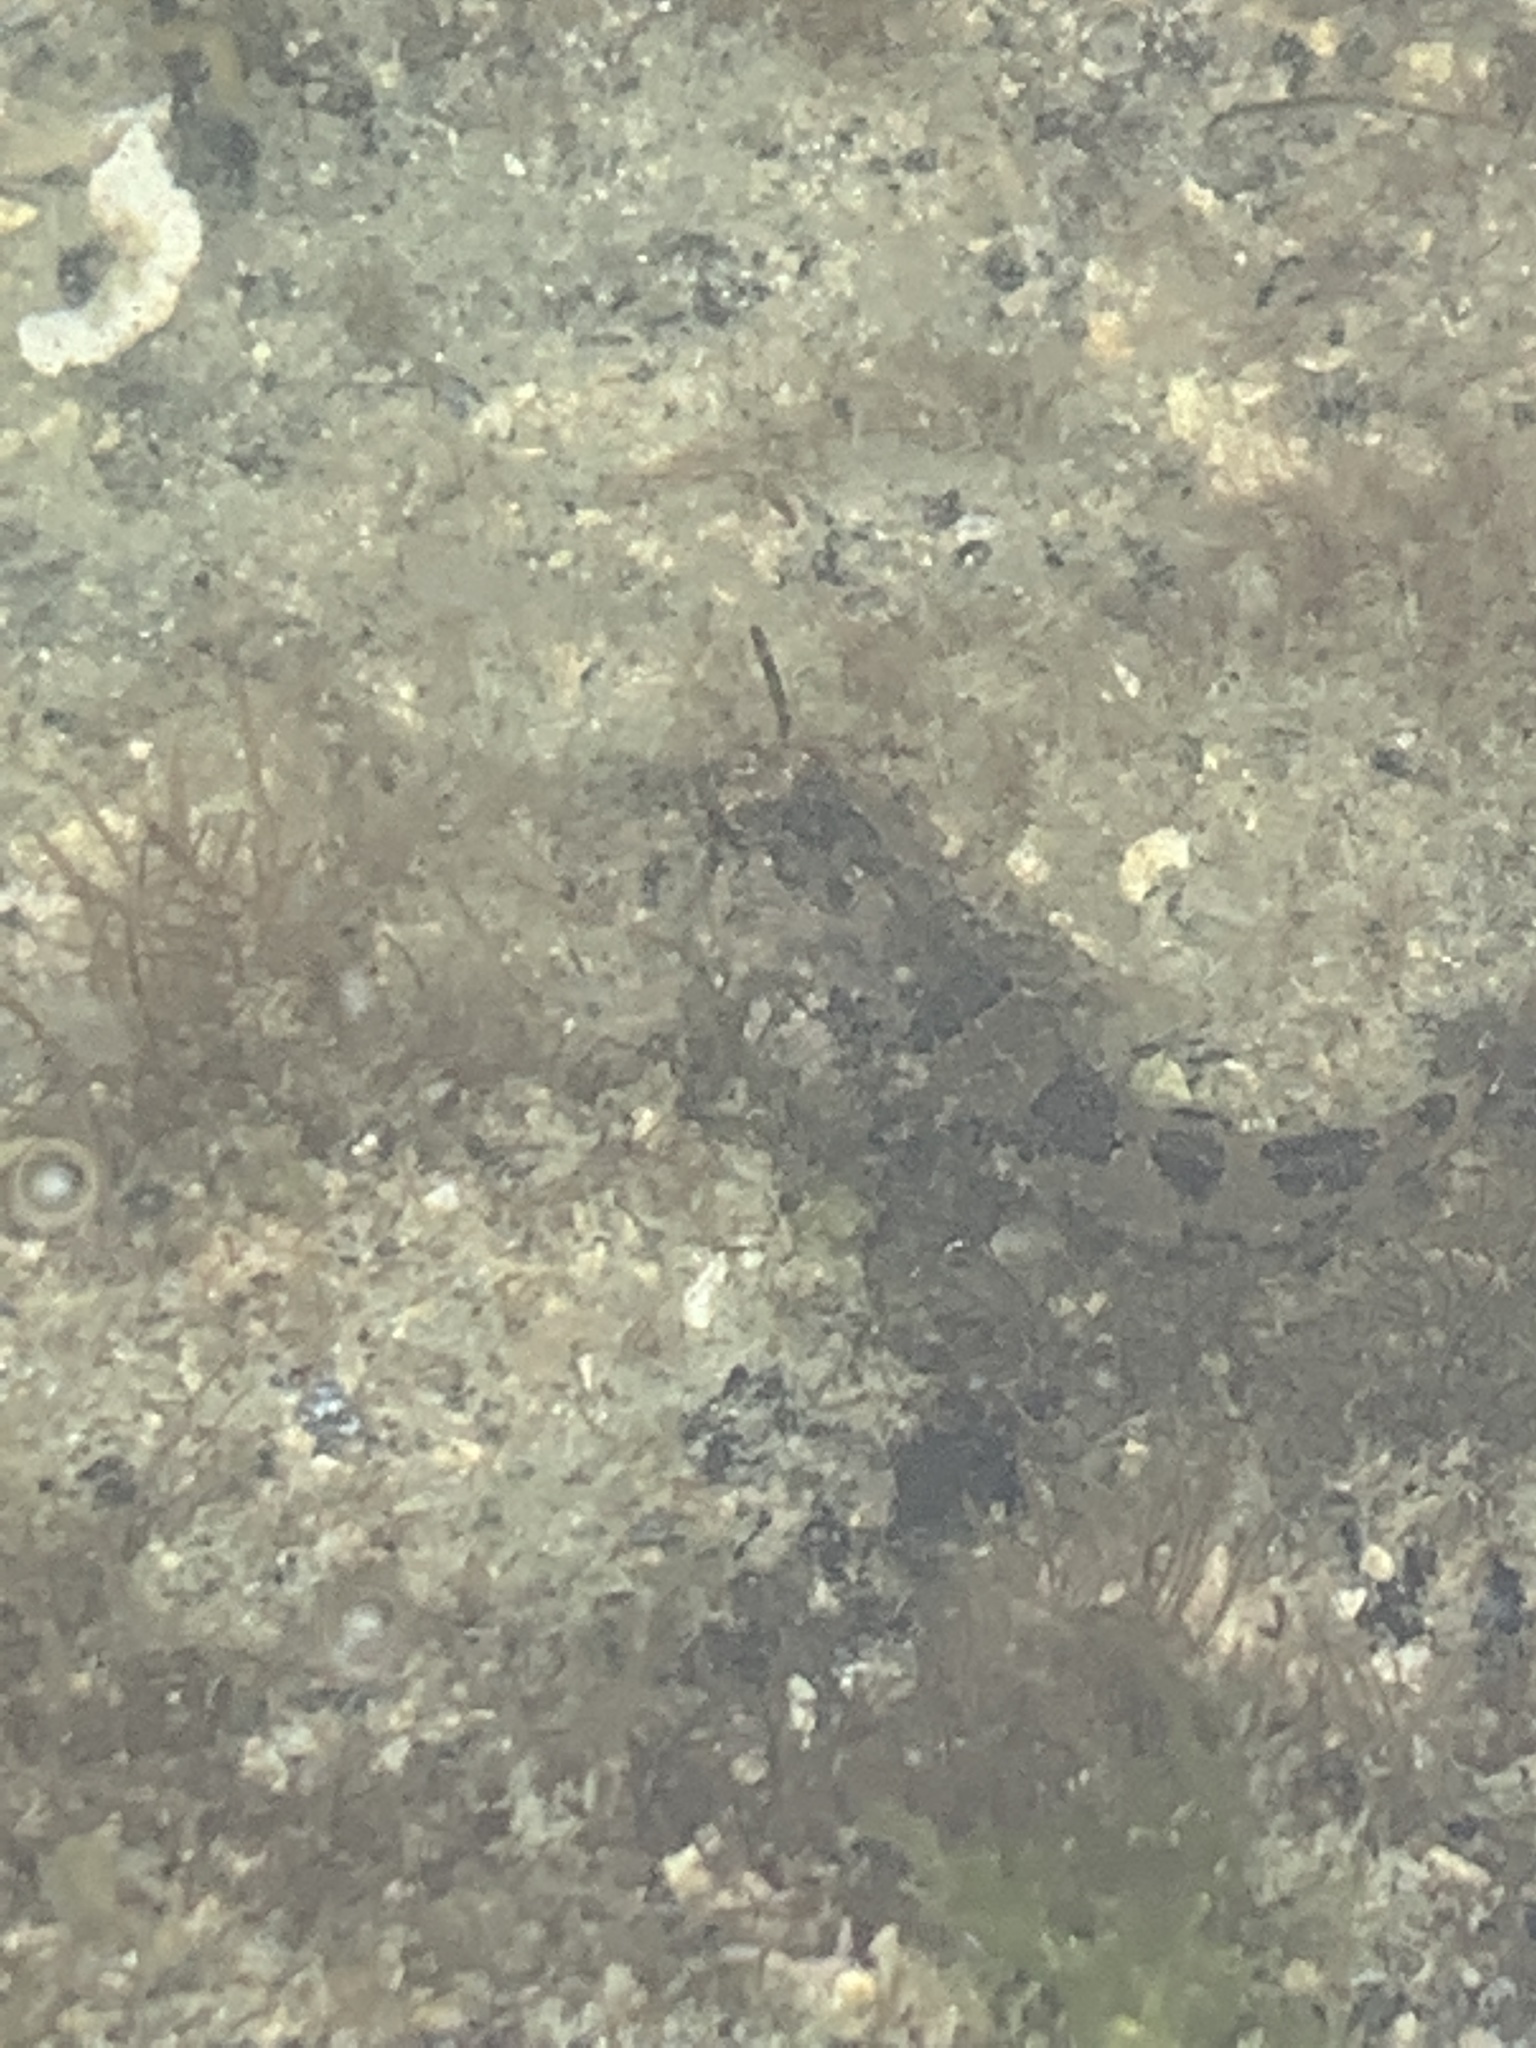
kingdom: Animalia
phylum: Chordata
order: Scorpaeniformes
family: Cottidae
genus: Oligocottus
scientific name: Oligocottus maculosus
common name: Tidepool sculpin
